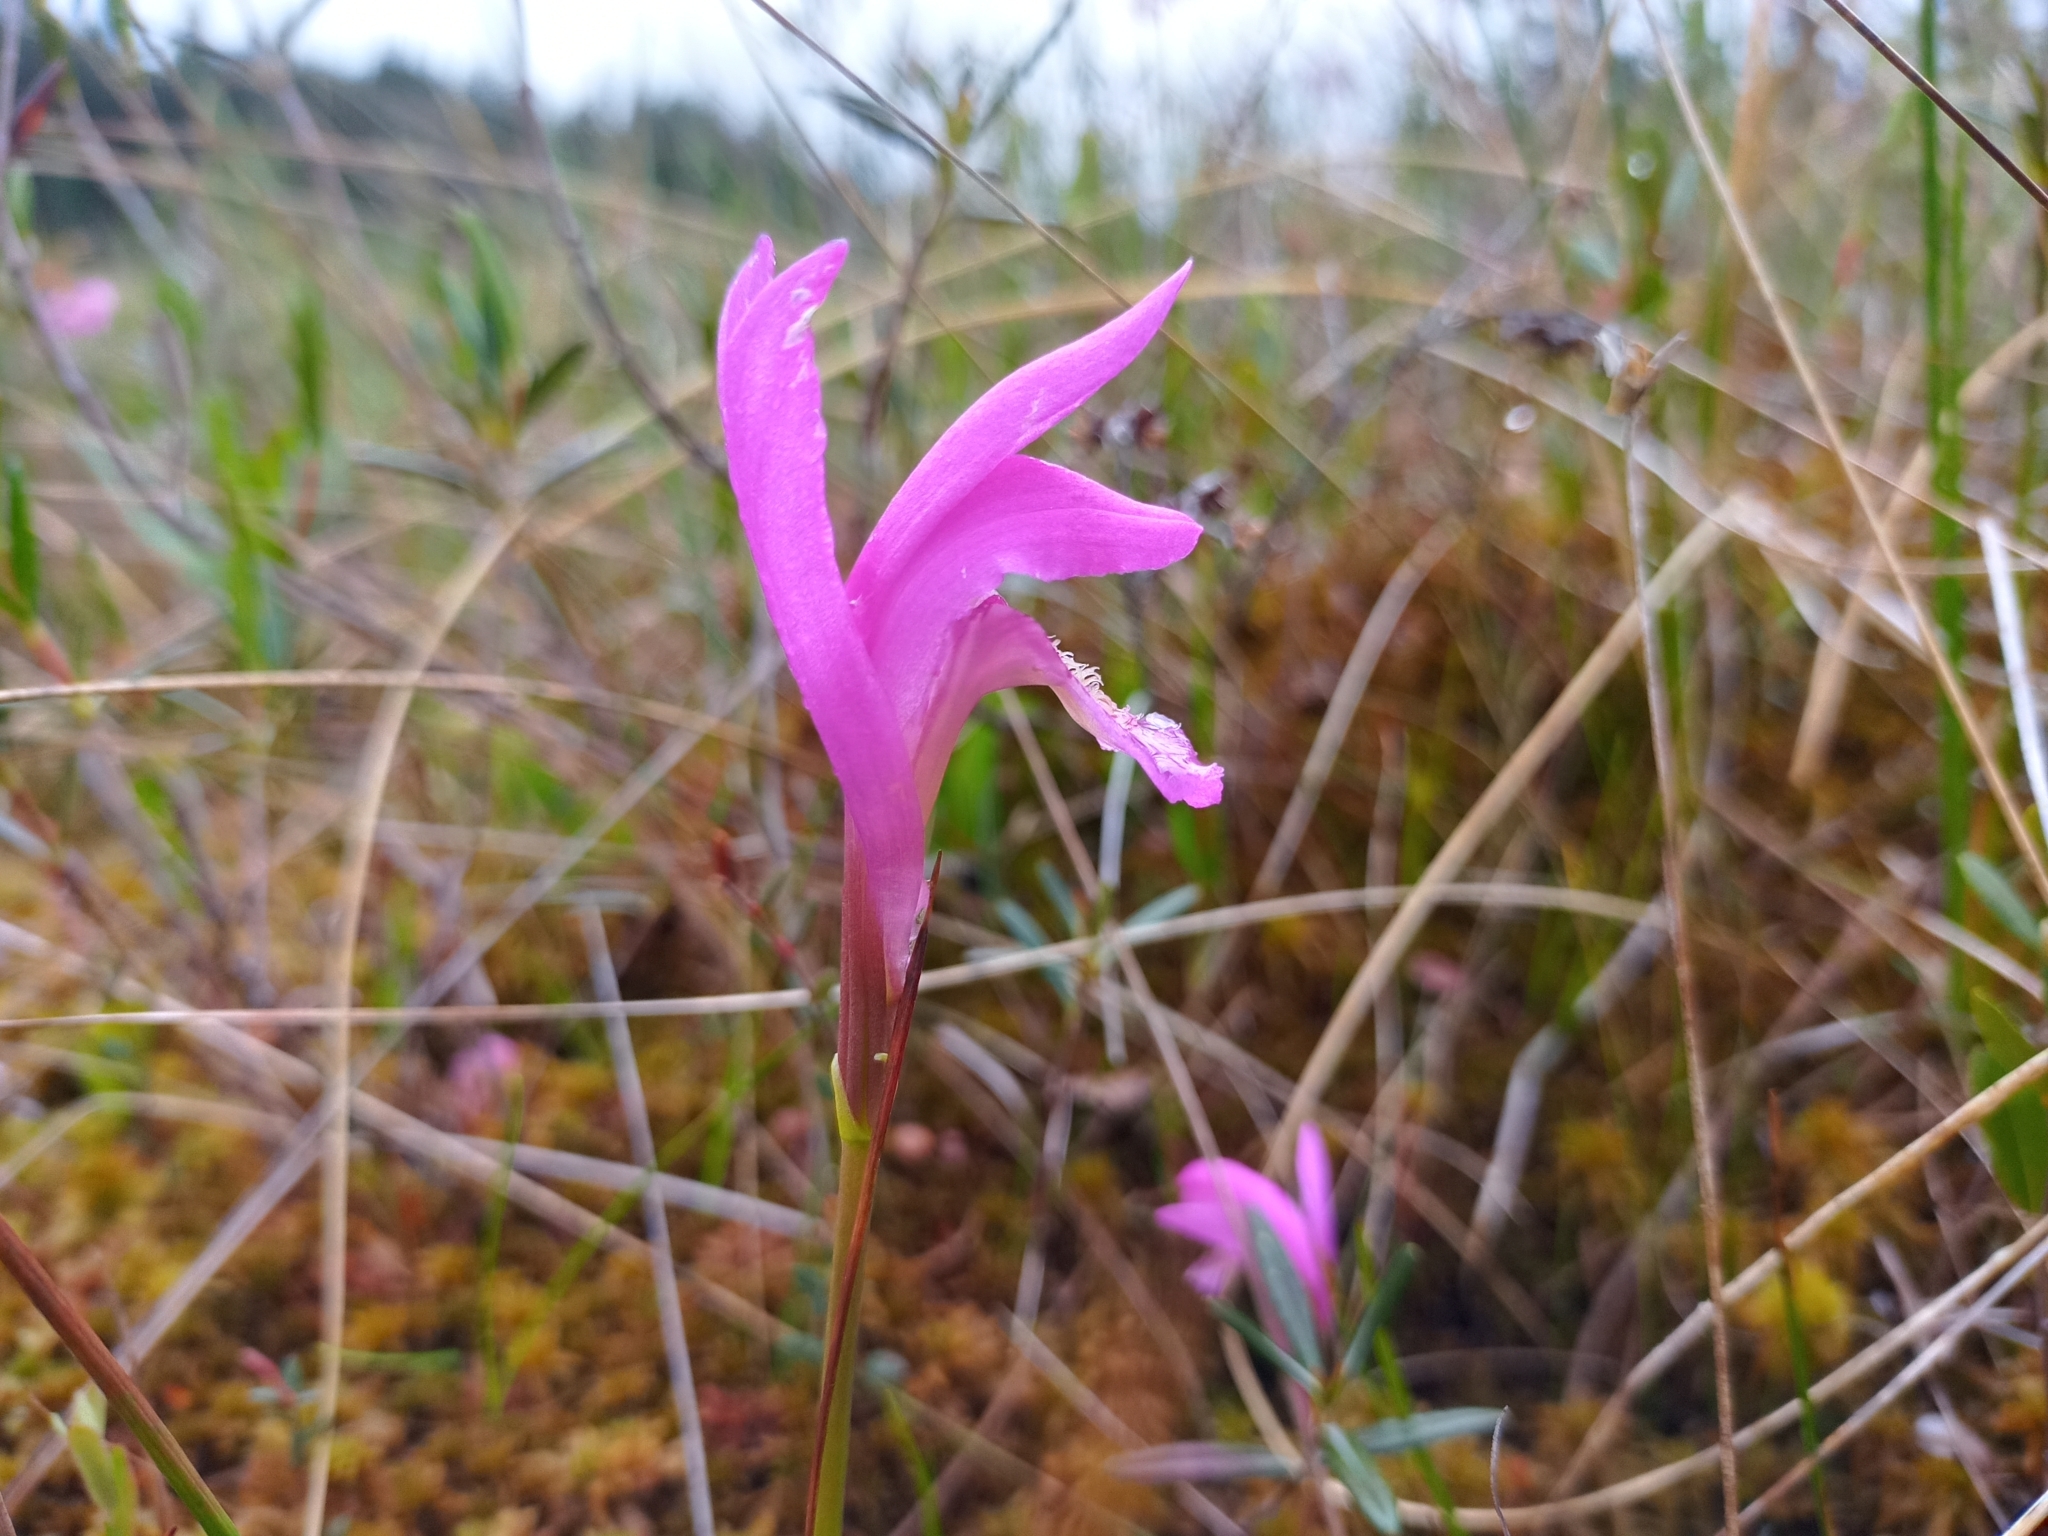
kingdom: Plantae
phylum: Tracheophyta
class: Liliopsida
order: Asparagales
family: Orchidaceae
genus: Arethusa
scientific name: Arethusa bulbosa
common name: Arethusa
